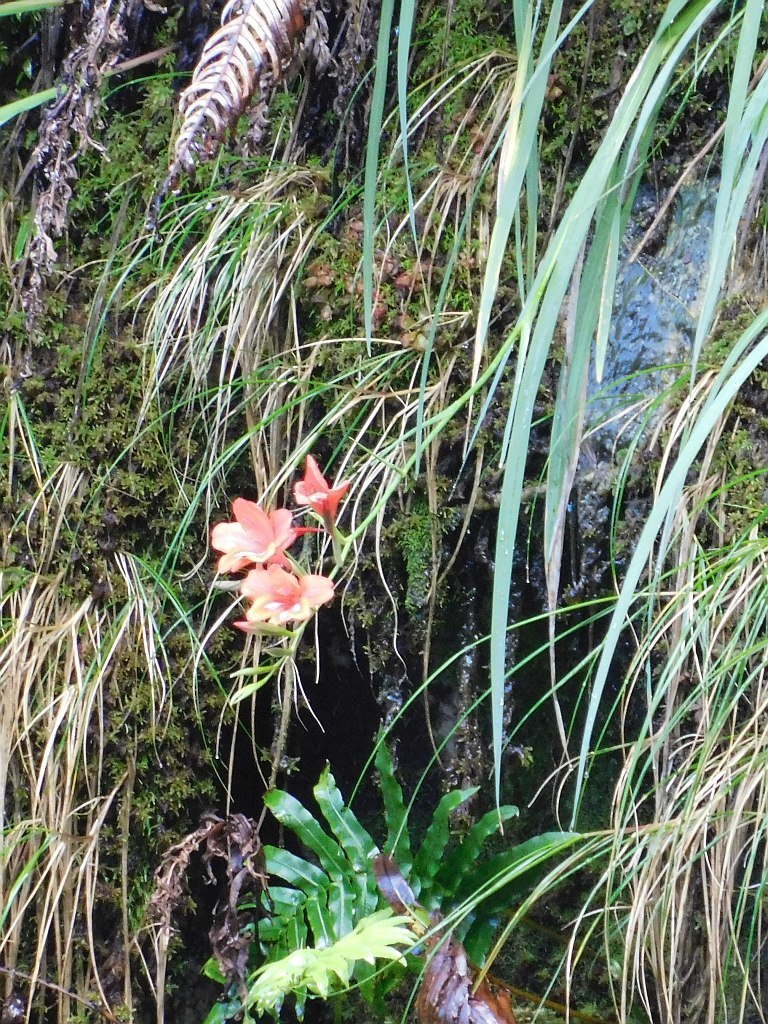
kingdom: Plantae
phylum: Tracheophyta
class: Liliopsida
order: Asparagales
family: Iridaceae
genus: Gladiolus
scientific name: Gladiolus cardinalis
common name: New year-lily
